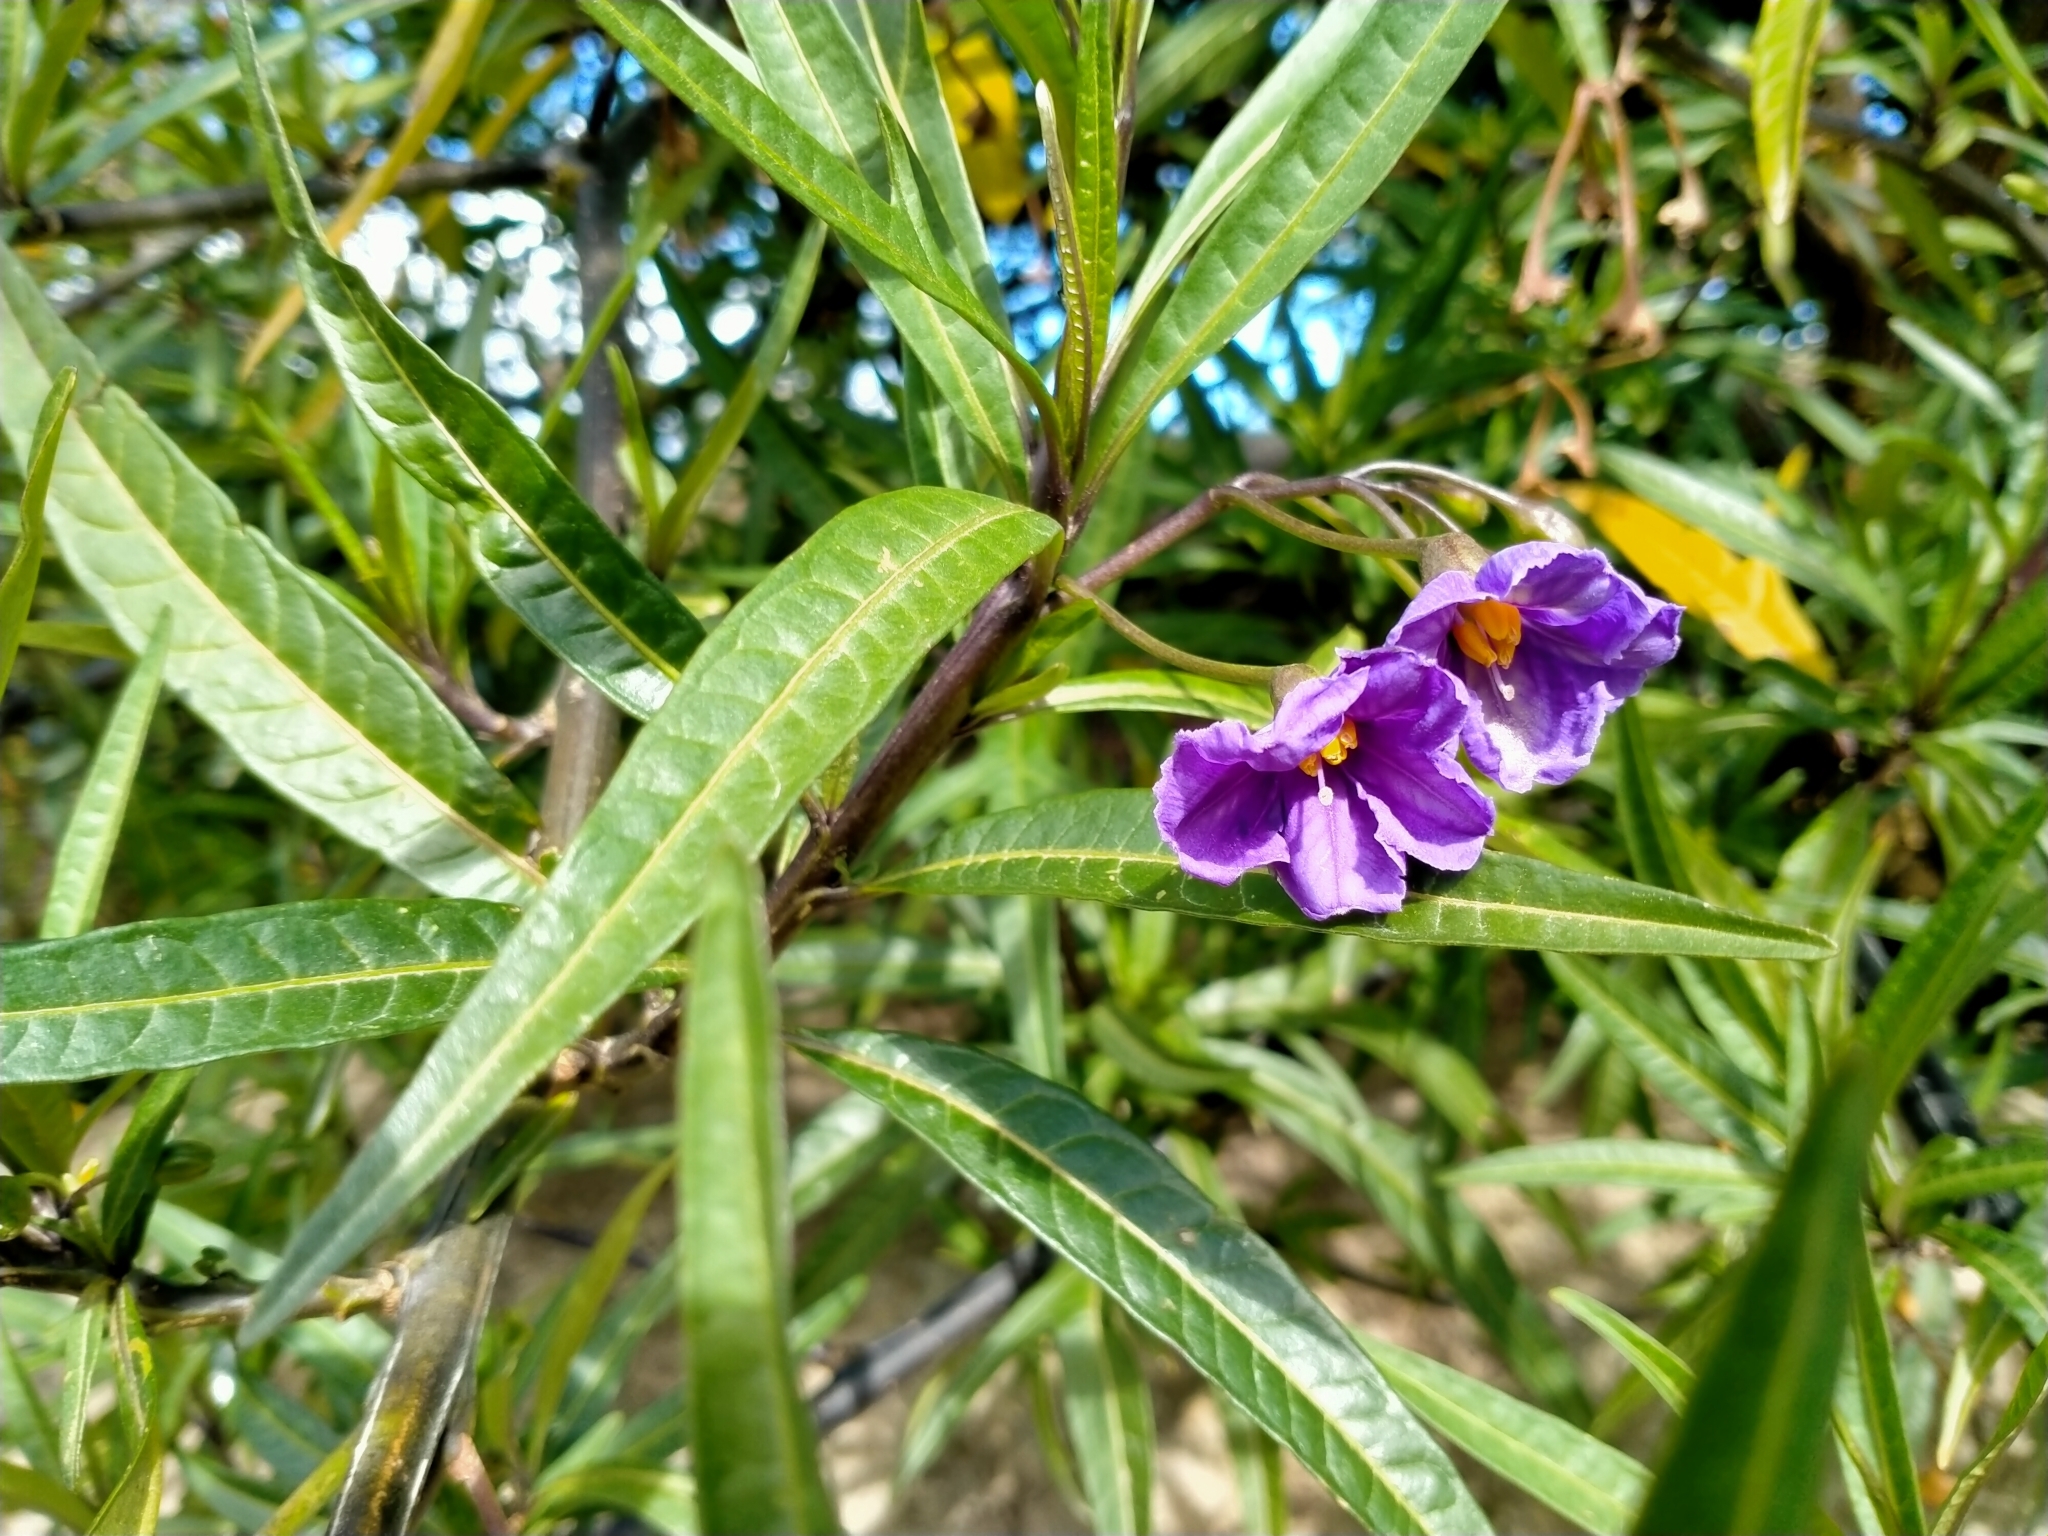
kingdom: Plantae
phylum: Tracheophyta
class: Magnoliopsida
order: Solanales
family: Solanaceae
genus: Solanum
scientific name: Solanum laciniatum
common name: Kangaroo-apple
